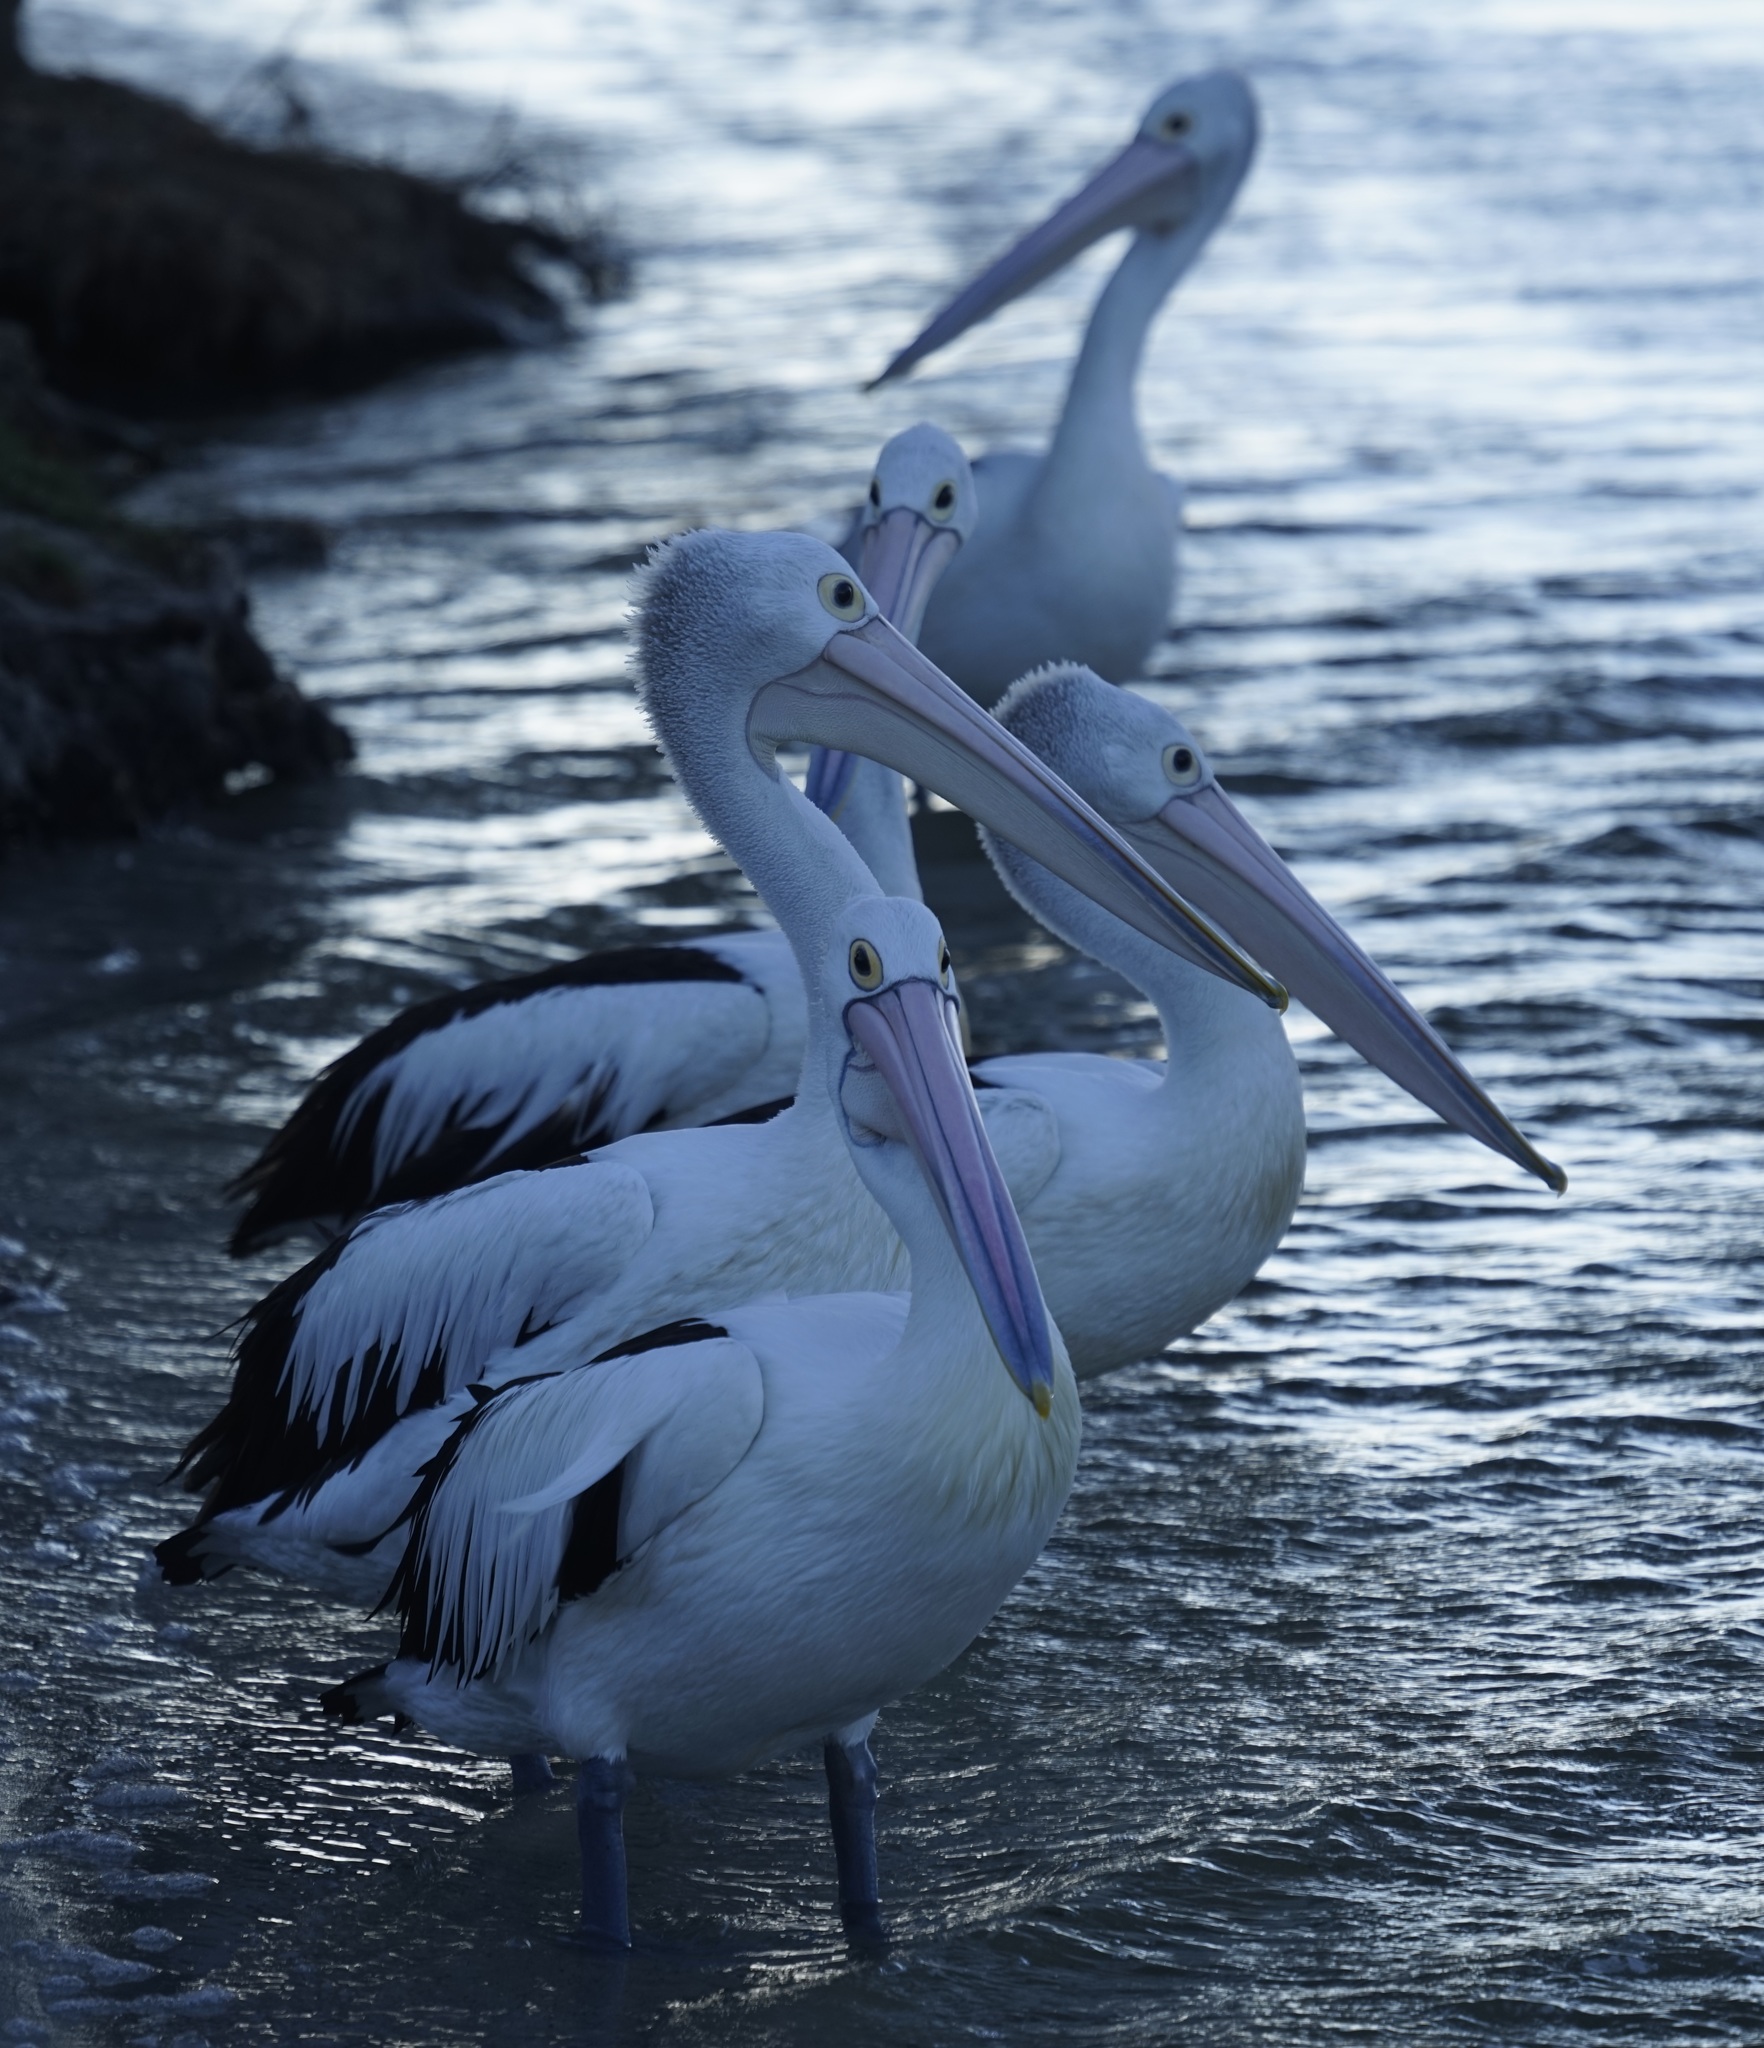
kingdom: Animalia
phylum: Chordata
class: Aves
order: Pelecaniformes
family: Pelecanidae
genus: Pelecanus
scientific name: Pelecanus conspicillatus
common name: Australian pelican
